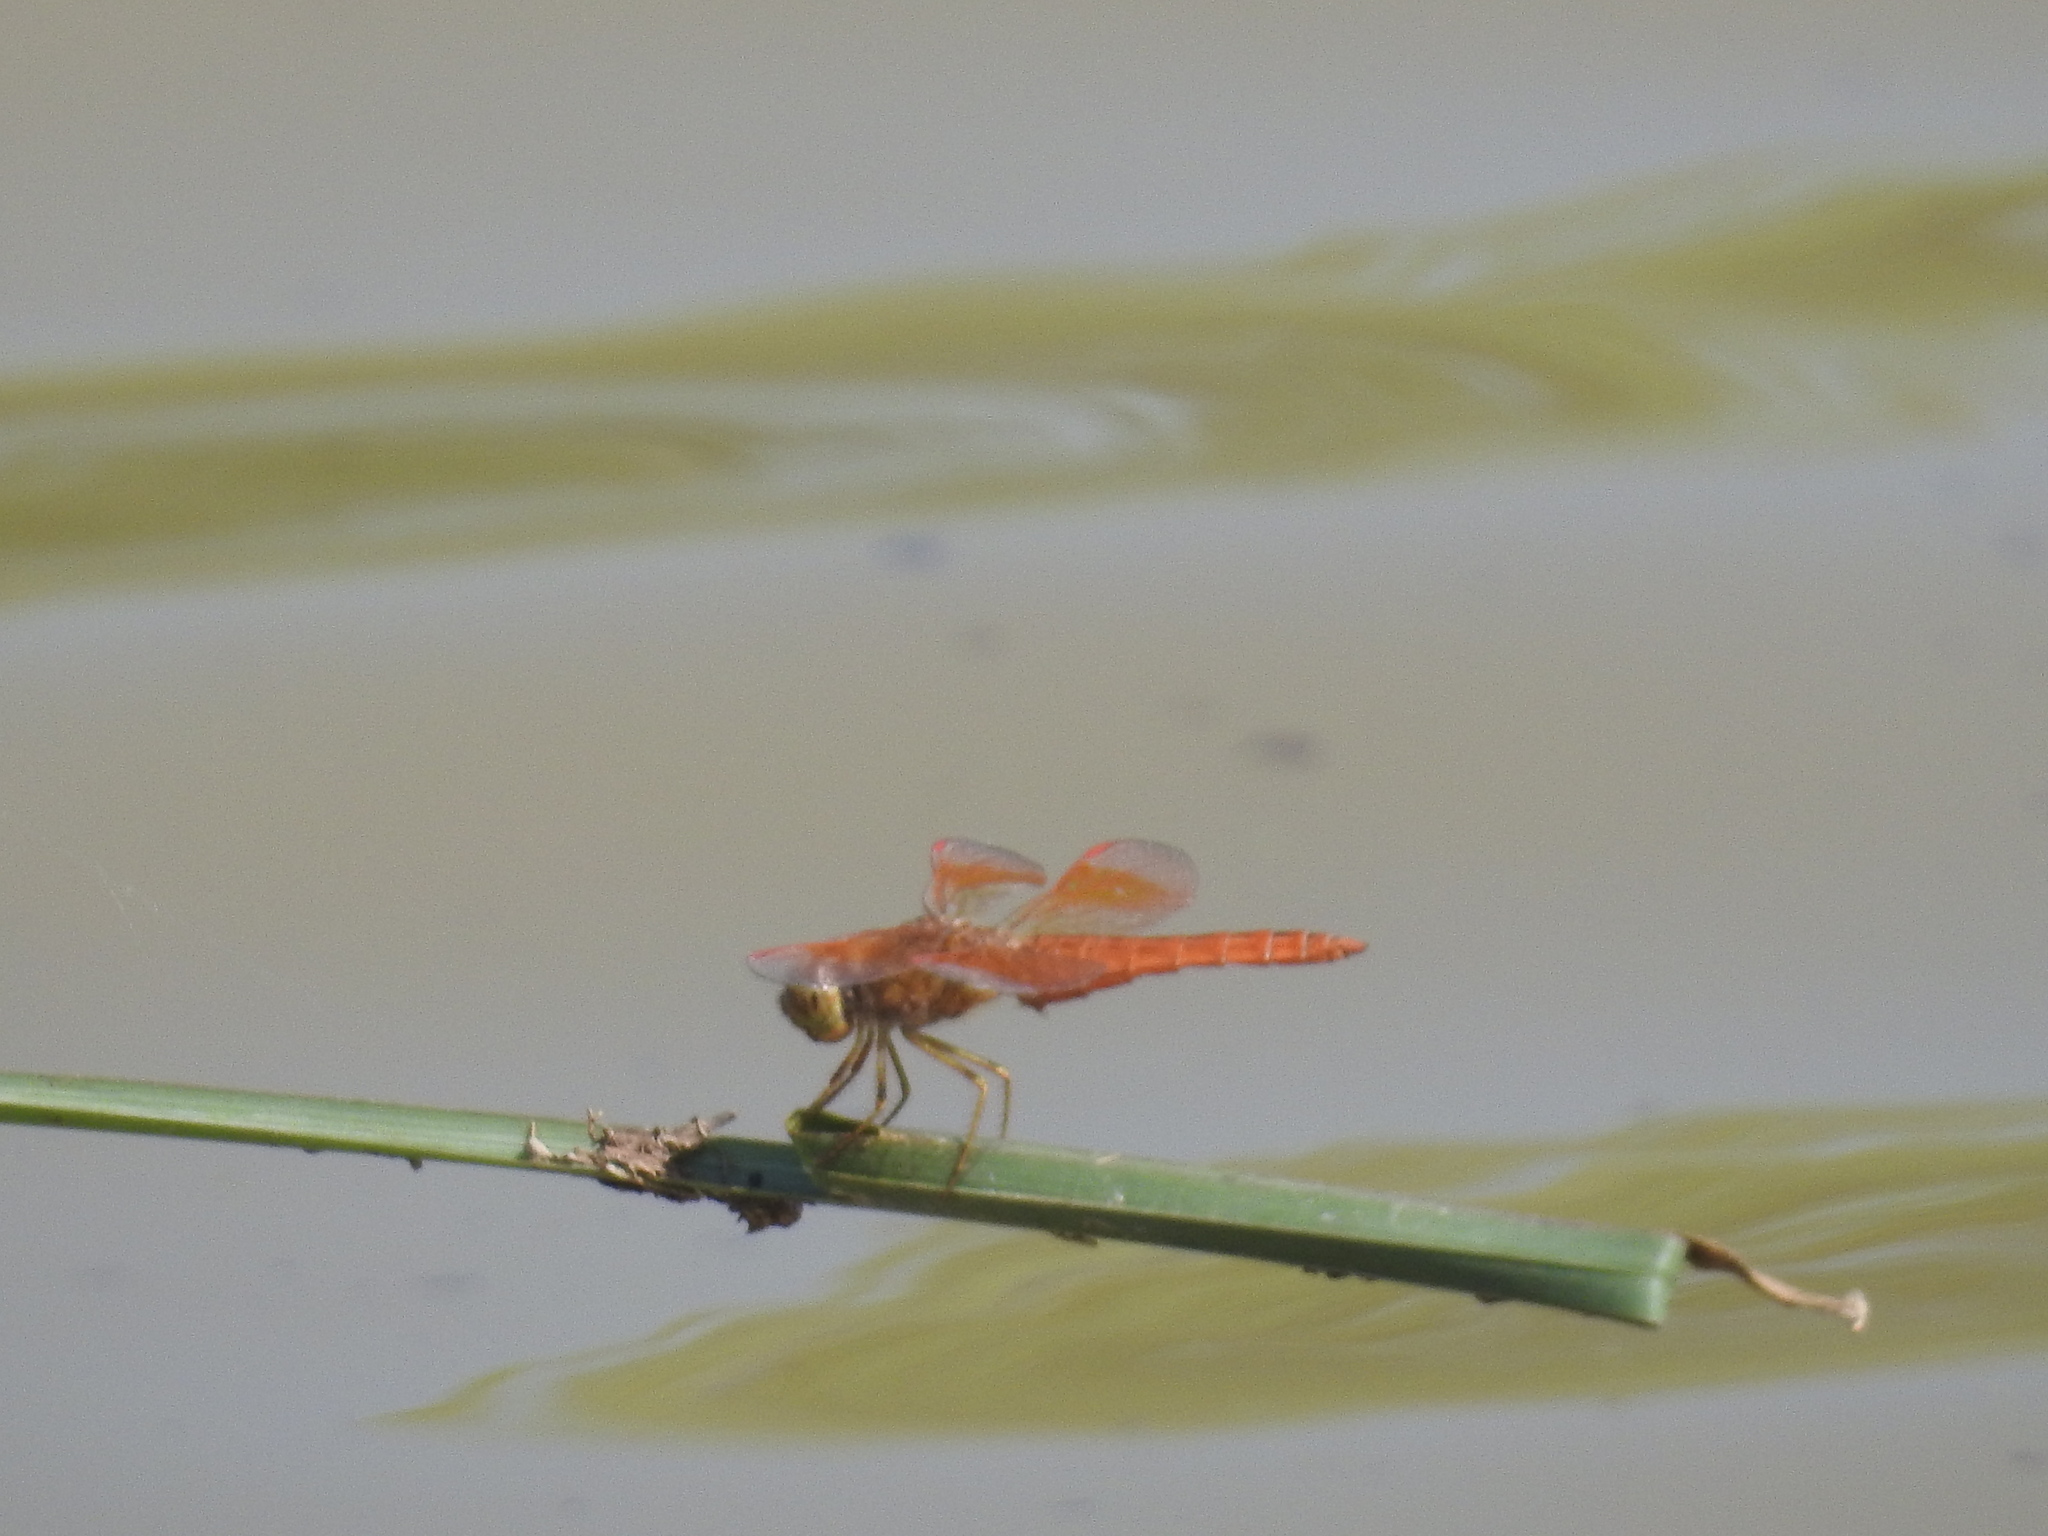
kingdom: Animalia
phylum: Arthropoda
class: Insecta
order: Odonata
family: Libellulidae
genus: Brachythemis
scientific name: Brachythemis contaminata
